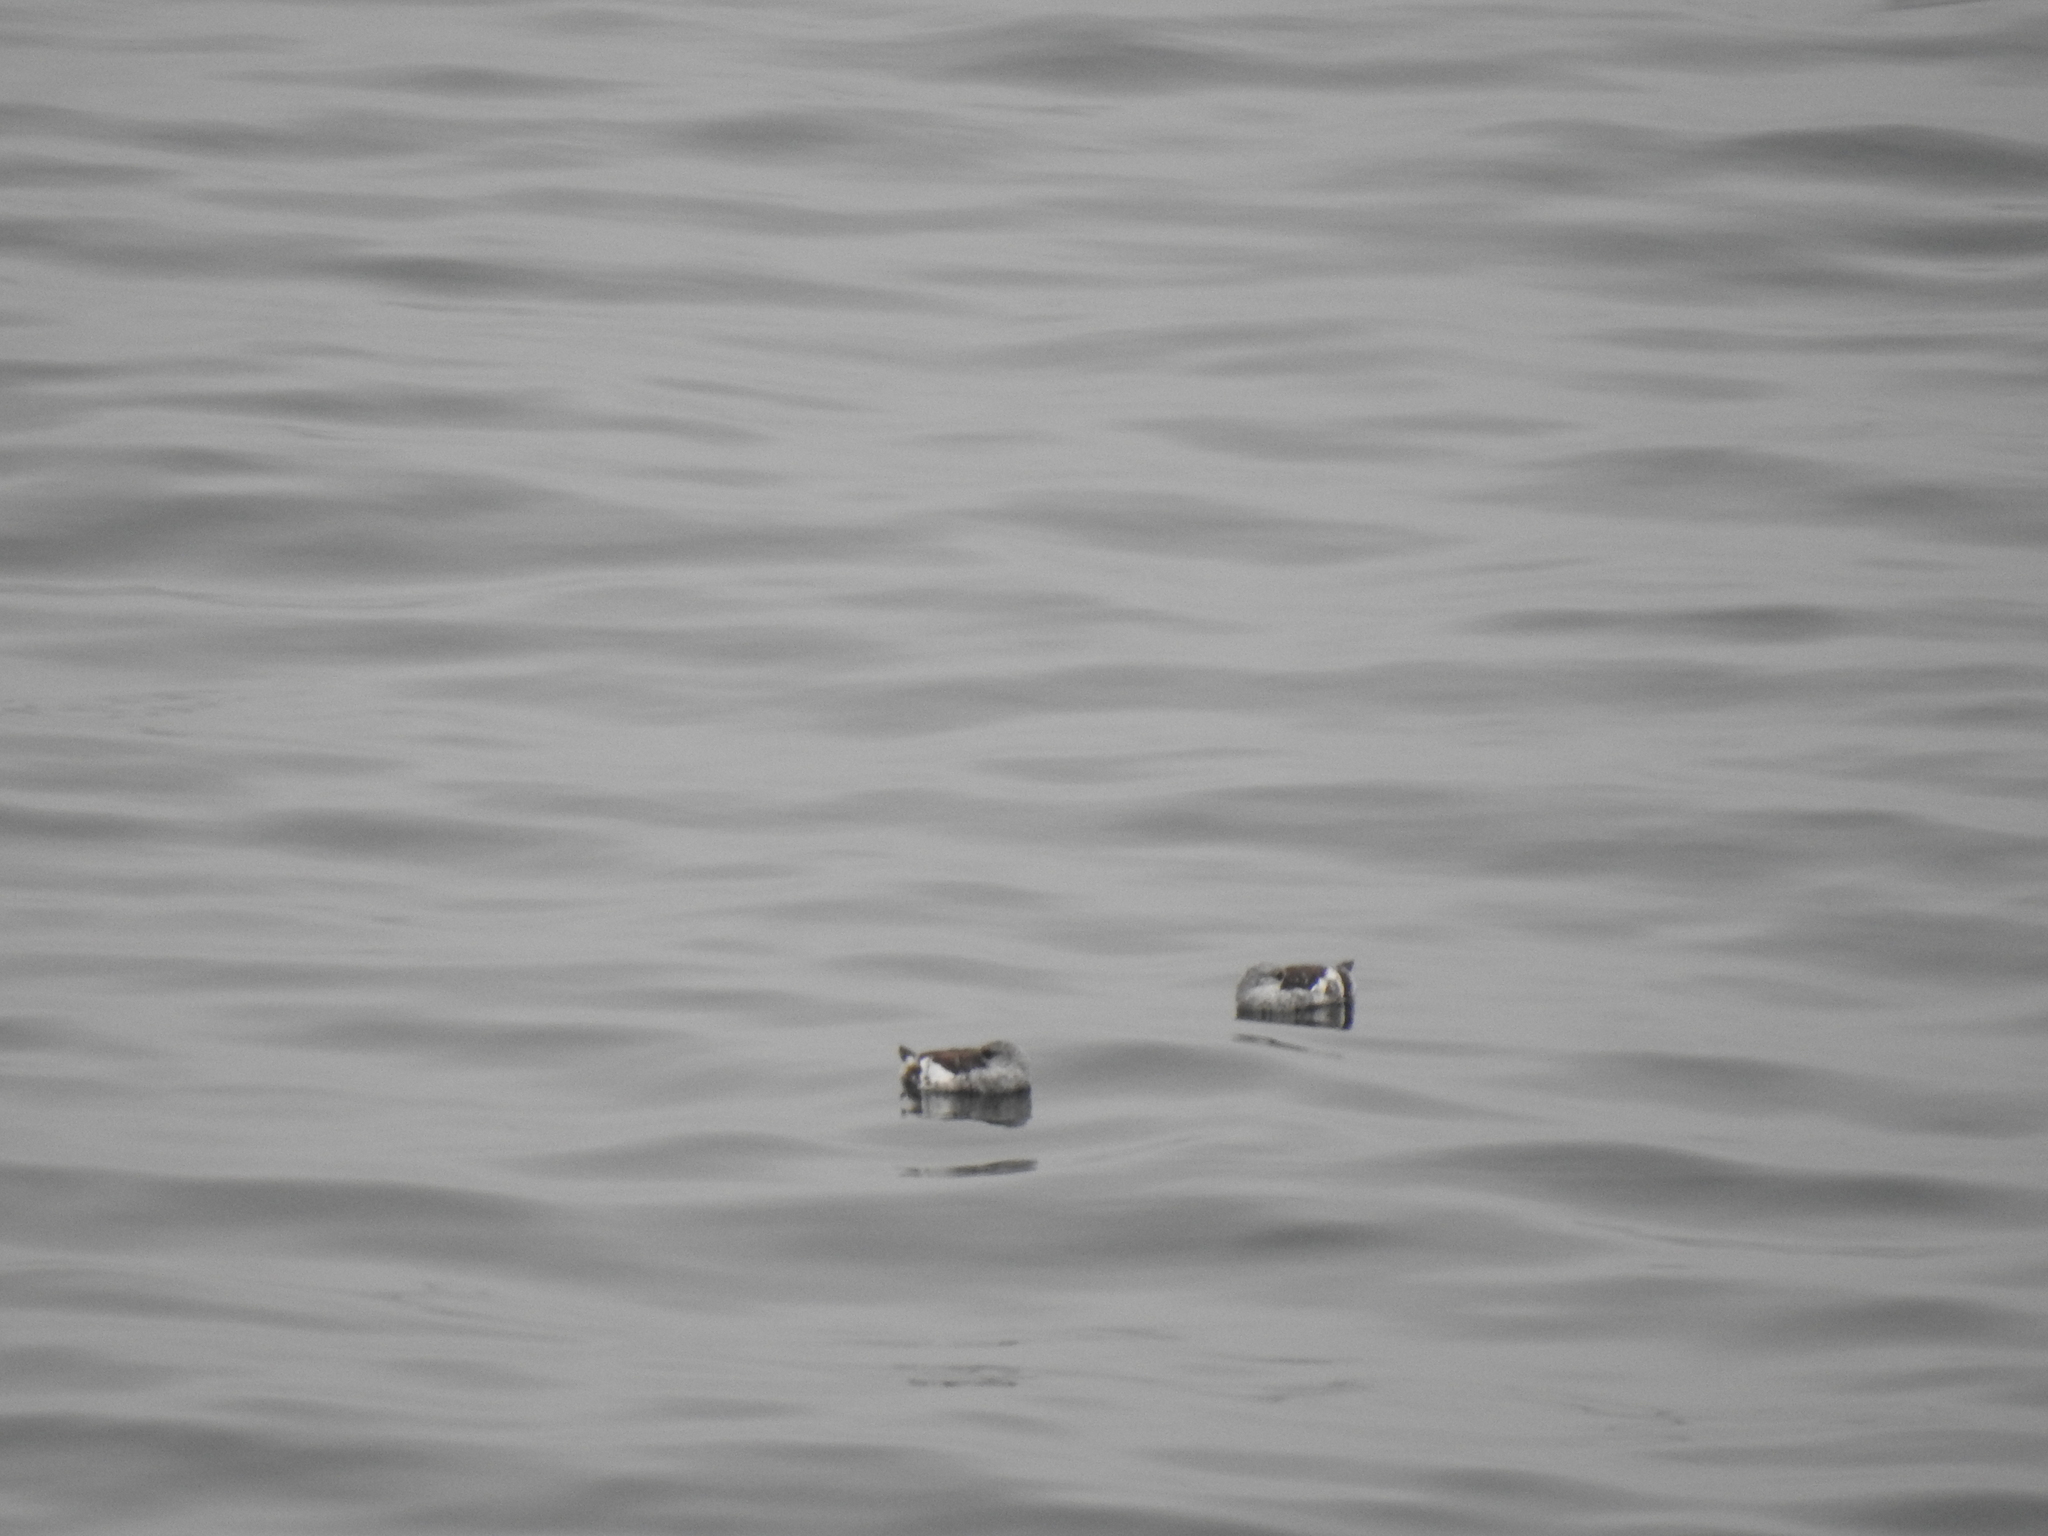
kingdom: Animalia
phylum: Chordata
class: Aves
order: Charadriiformes
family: Alcidae
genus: Cepphus
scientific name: Cepphus grylle
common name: Black guillemot
